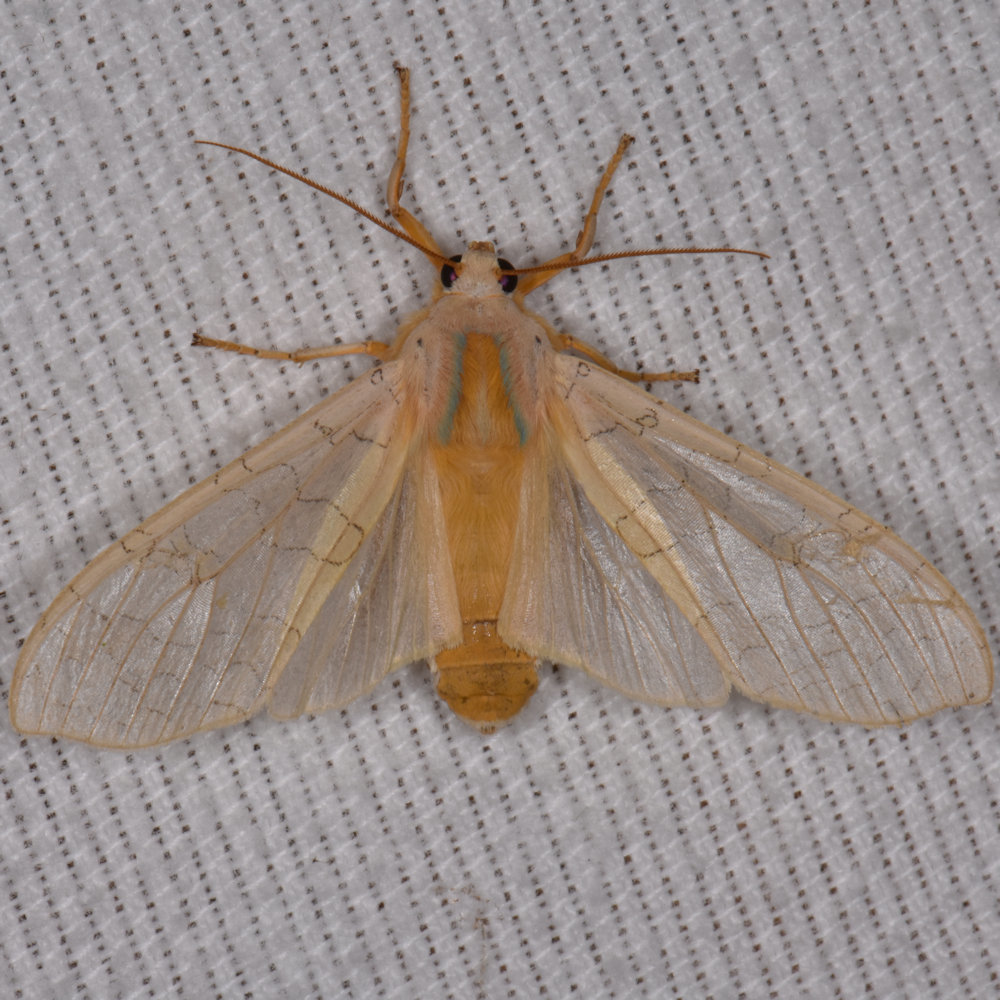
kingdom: Animalia
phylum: Arthropoda
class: Insecta
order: Lepidoptera
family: Erebidae
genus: Halysidota
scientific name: Halysidota tessellaris
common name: Banded tussock moth
